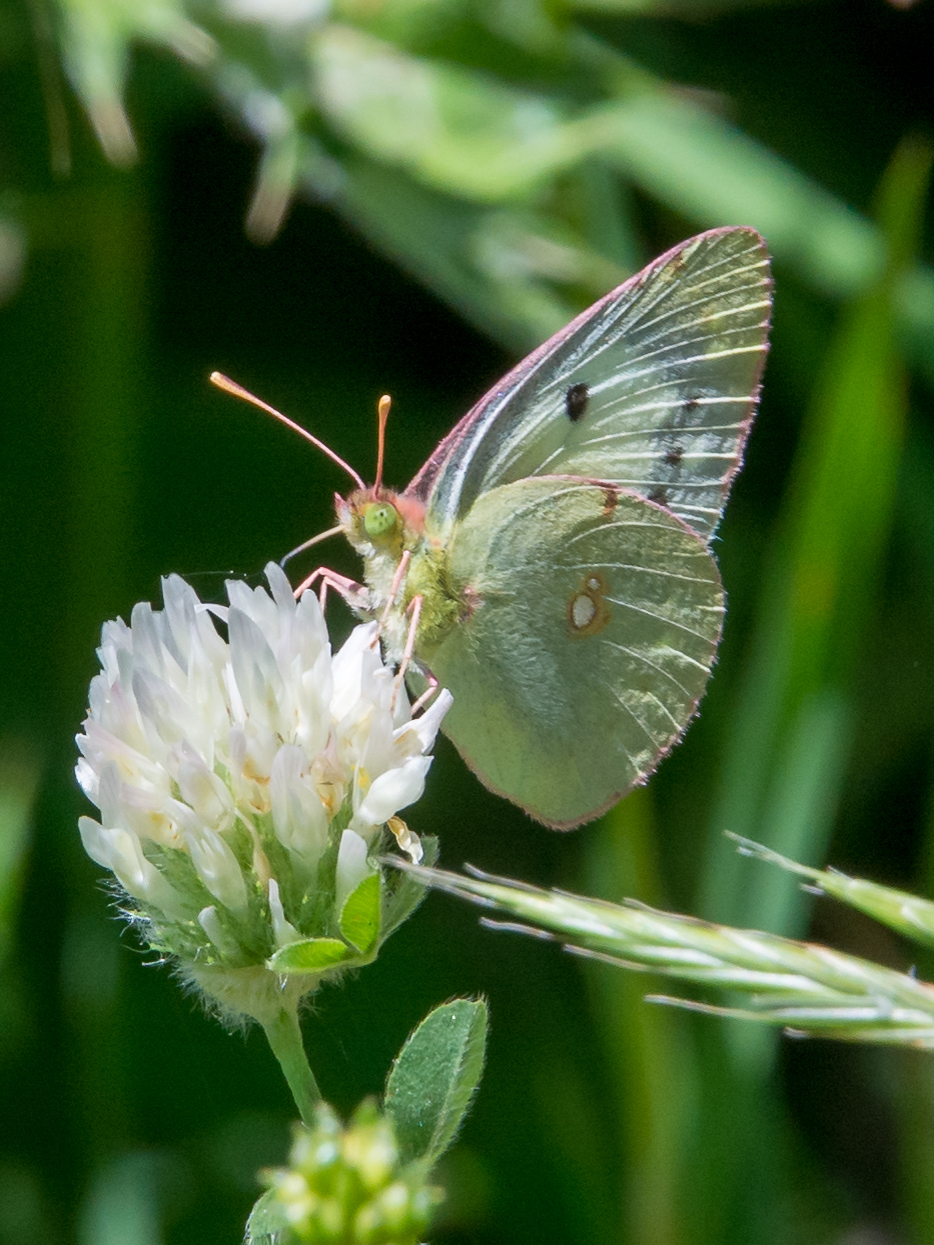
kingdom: Animalia
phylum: Arthropoda
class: Insecta
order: Lepidoptera
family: Pieridae
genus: Colias
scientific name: Colias croceus
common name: Clouded yellow
